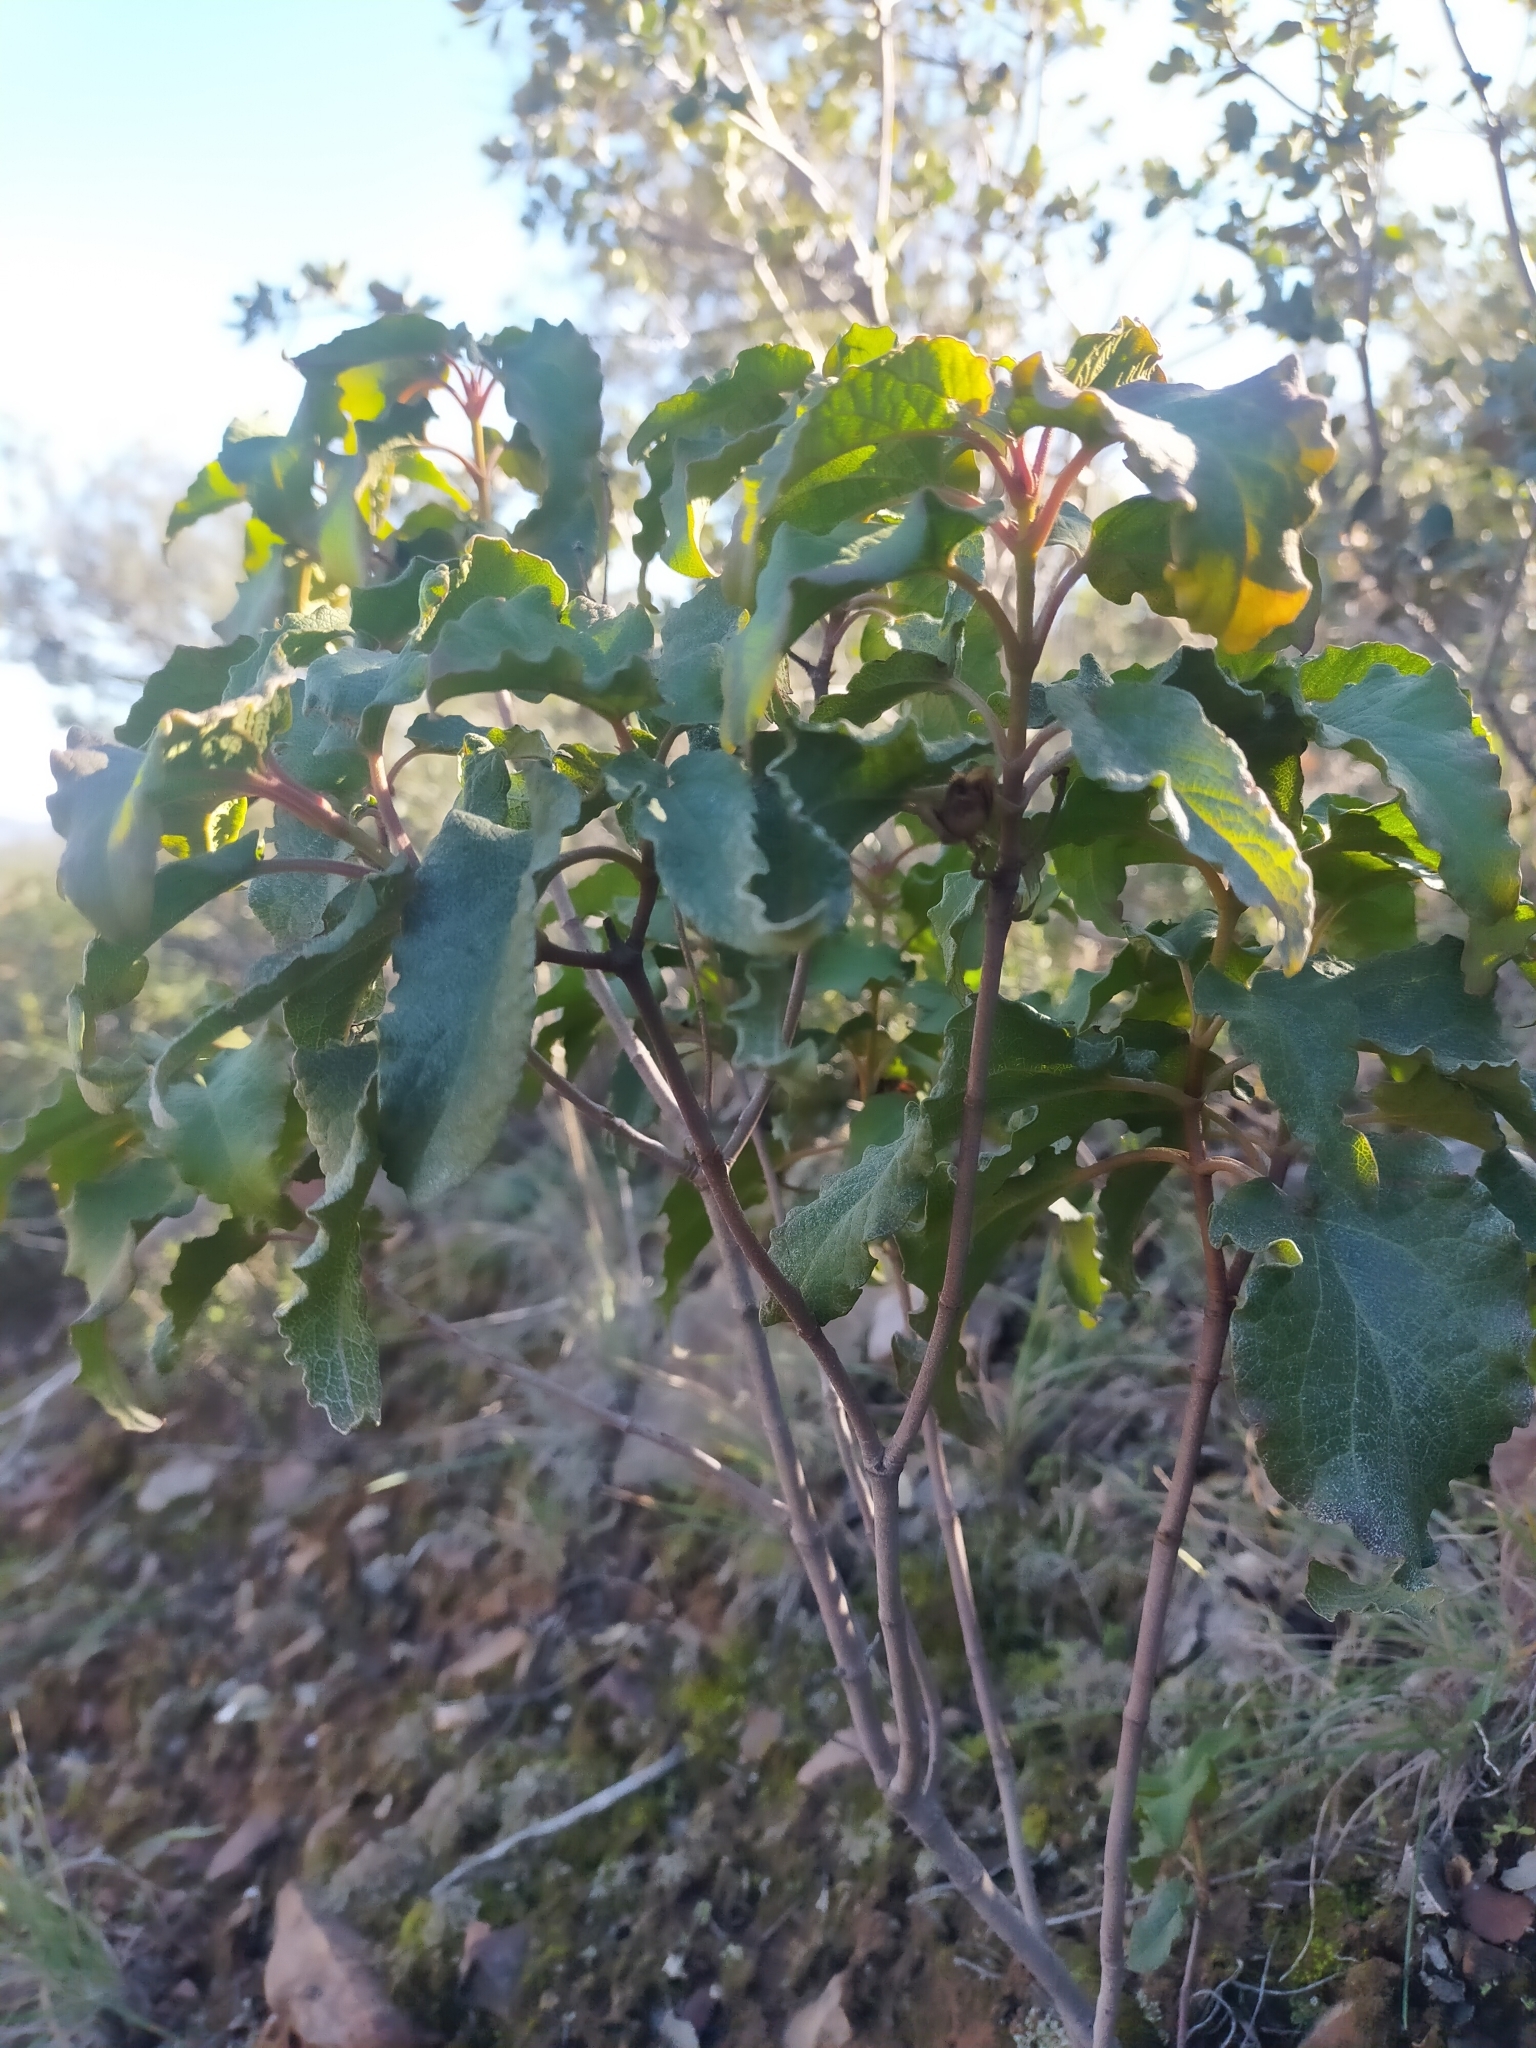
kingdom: Plantae
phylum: Tracheophyta
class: Magnoliopsida
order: Malvales
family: Cistaceae
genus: Cistus
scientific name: Cistus populifolius
